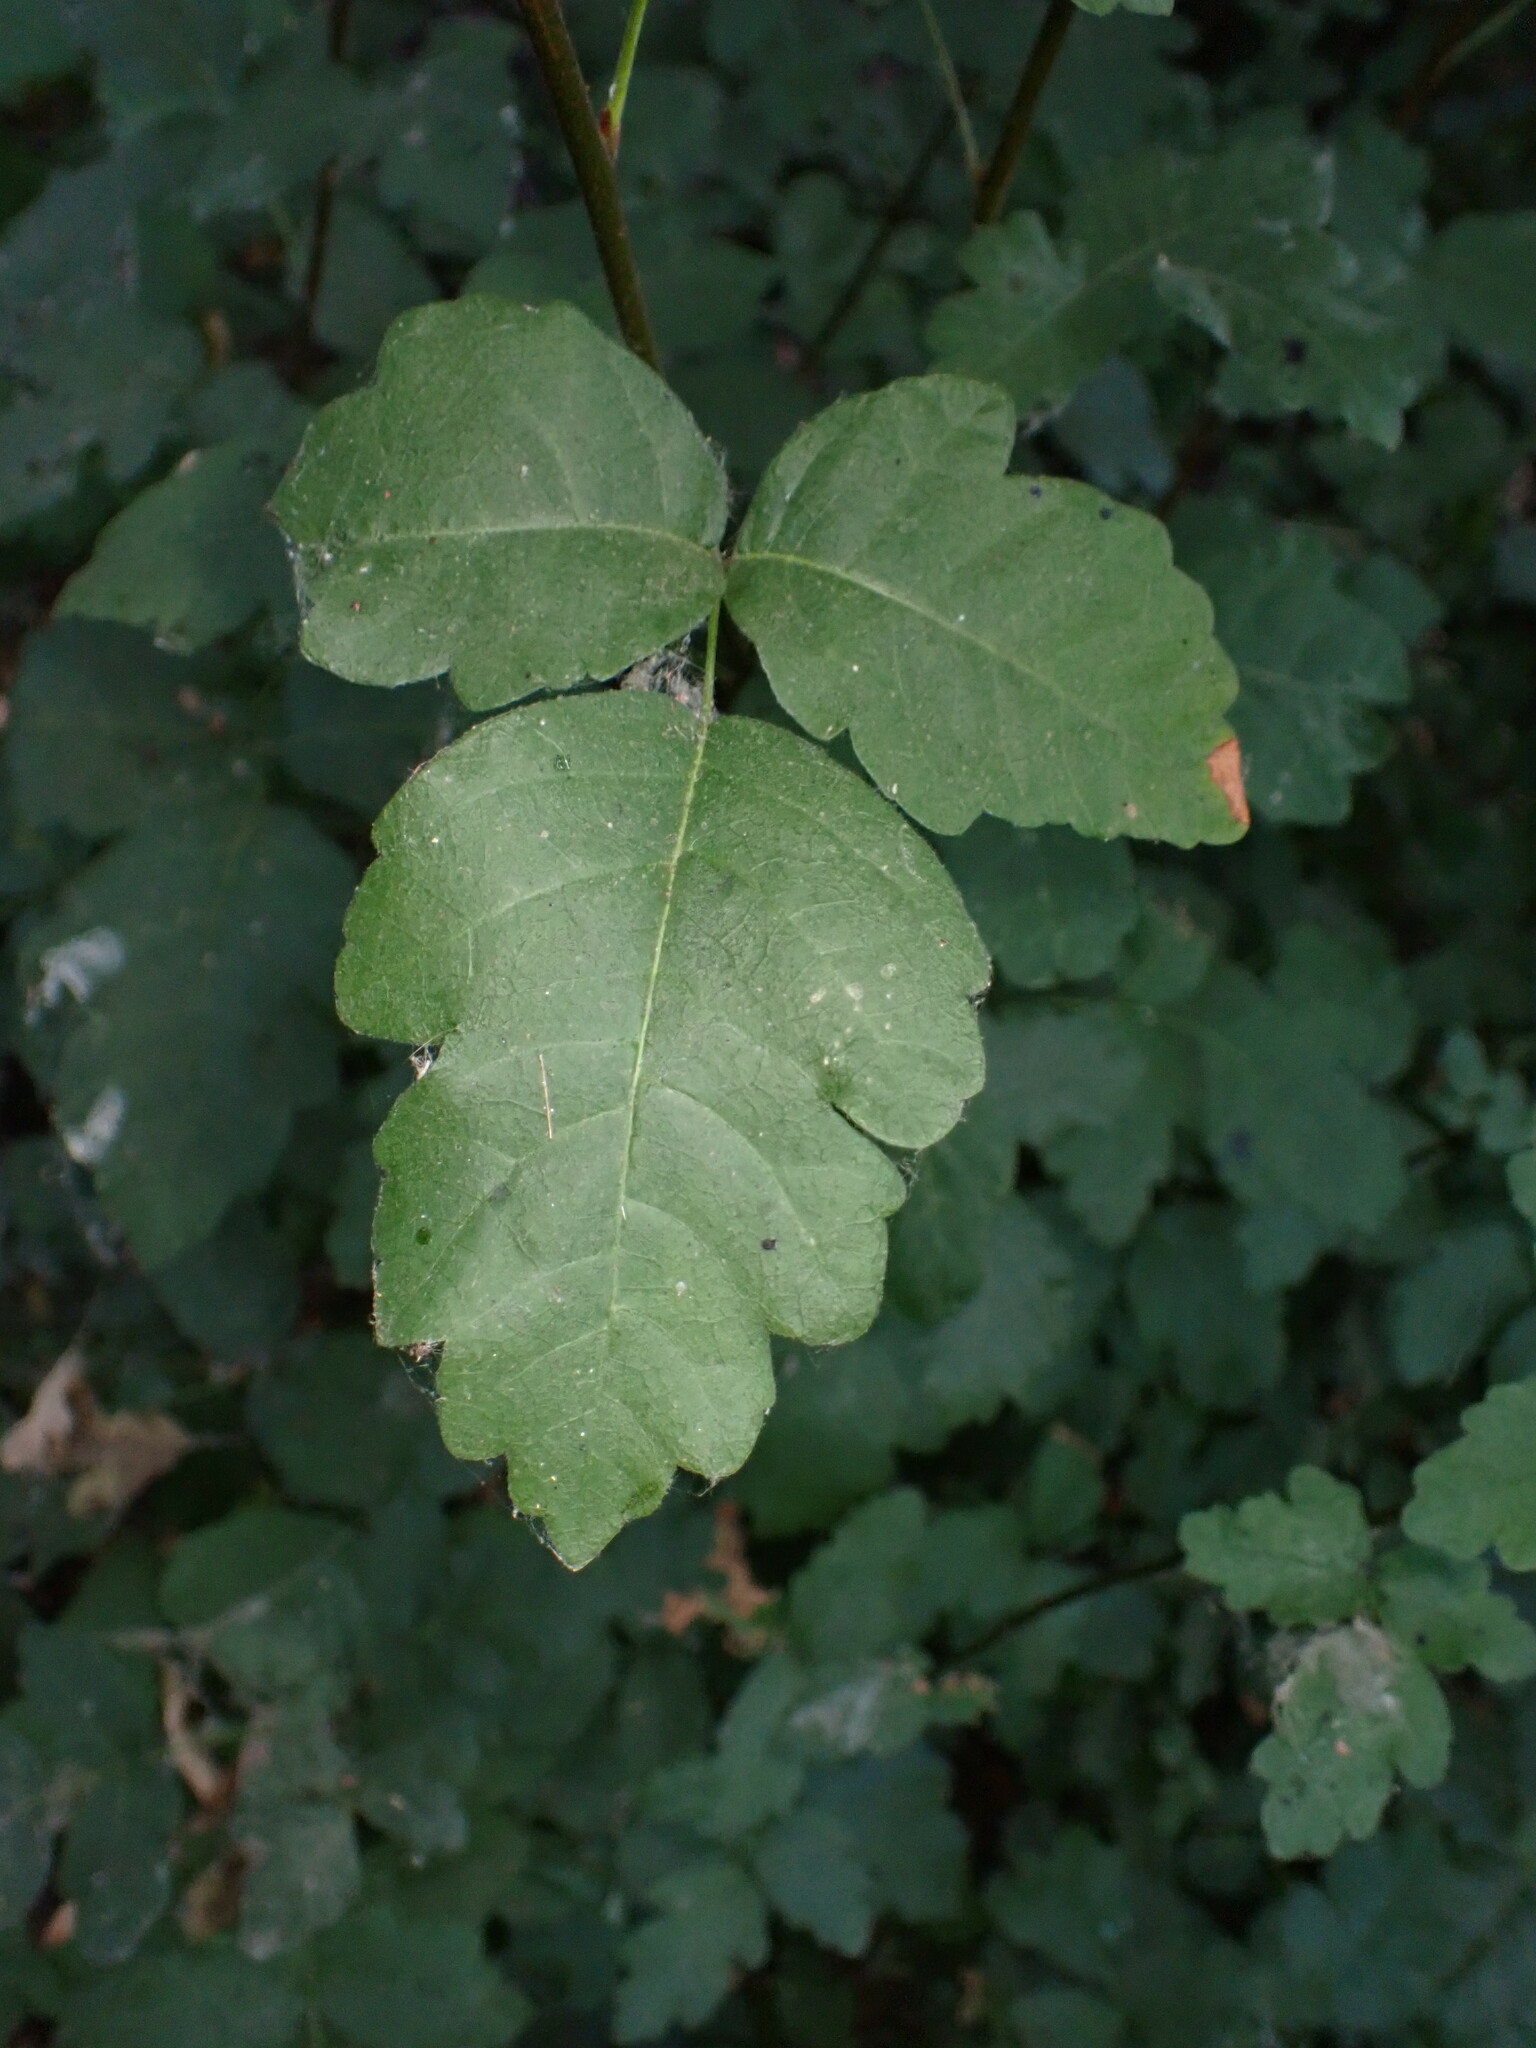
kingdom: Plantae
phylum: Tracheophyta
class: Magnoliopsida
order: Sapindales
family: Anacardiaceae
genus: Toxicodendron
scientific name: Toxicodendron diversilobum
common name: Pacific poison-oak
